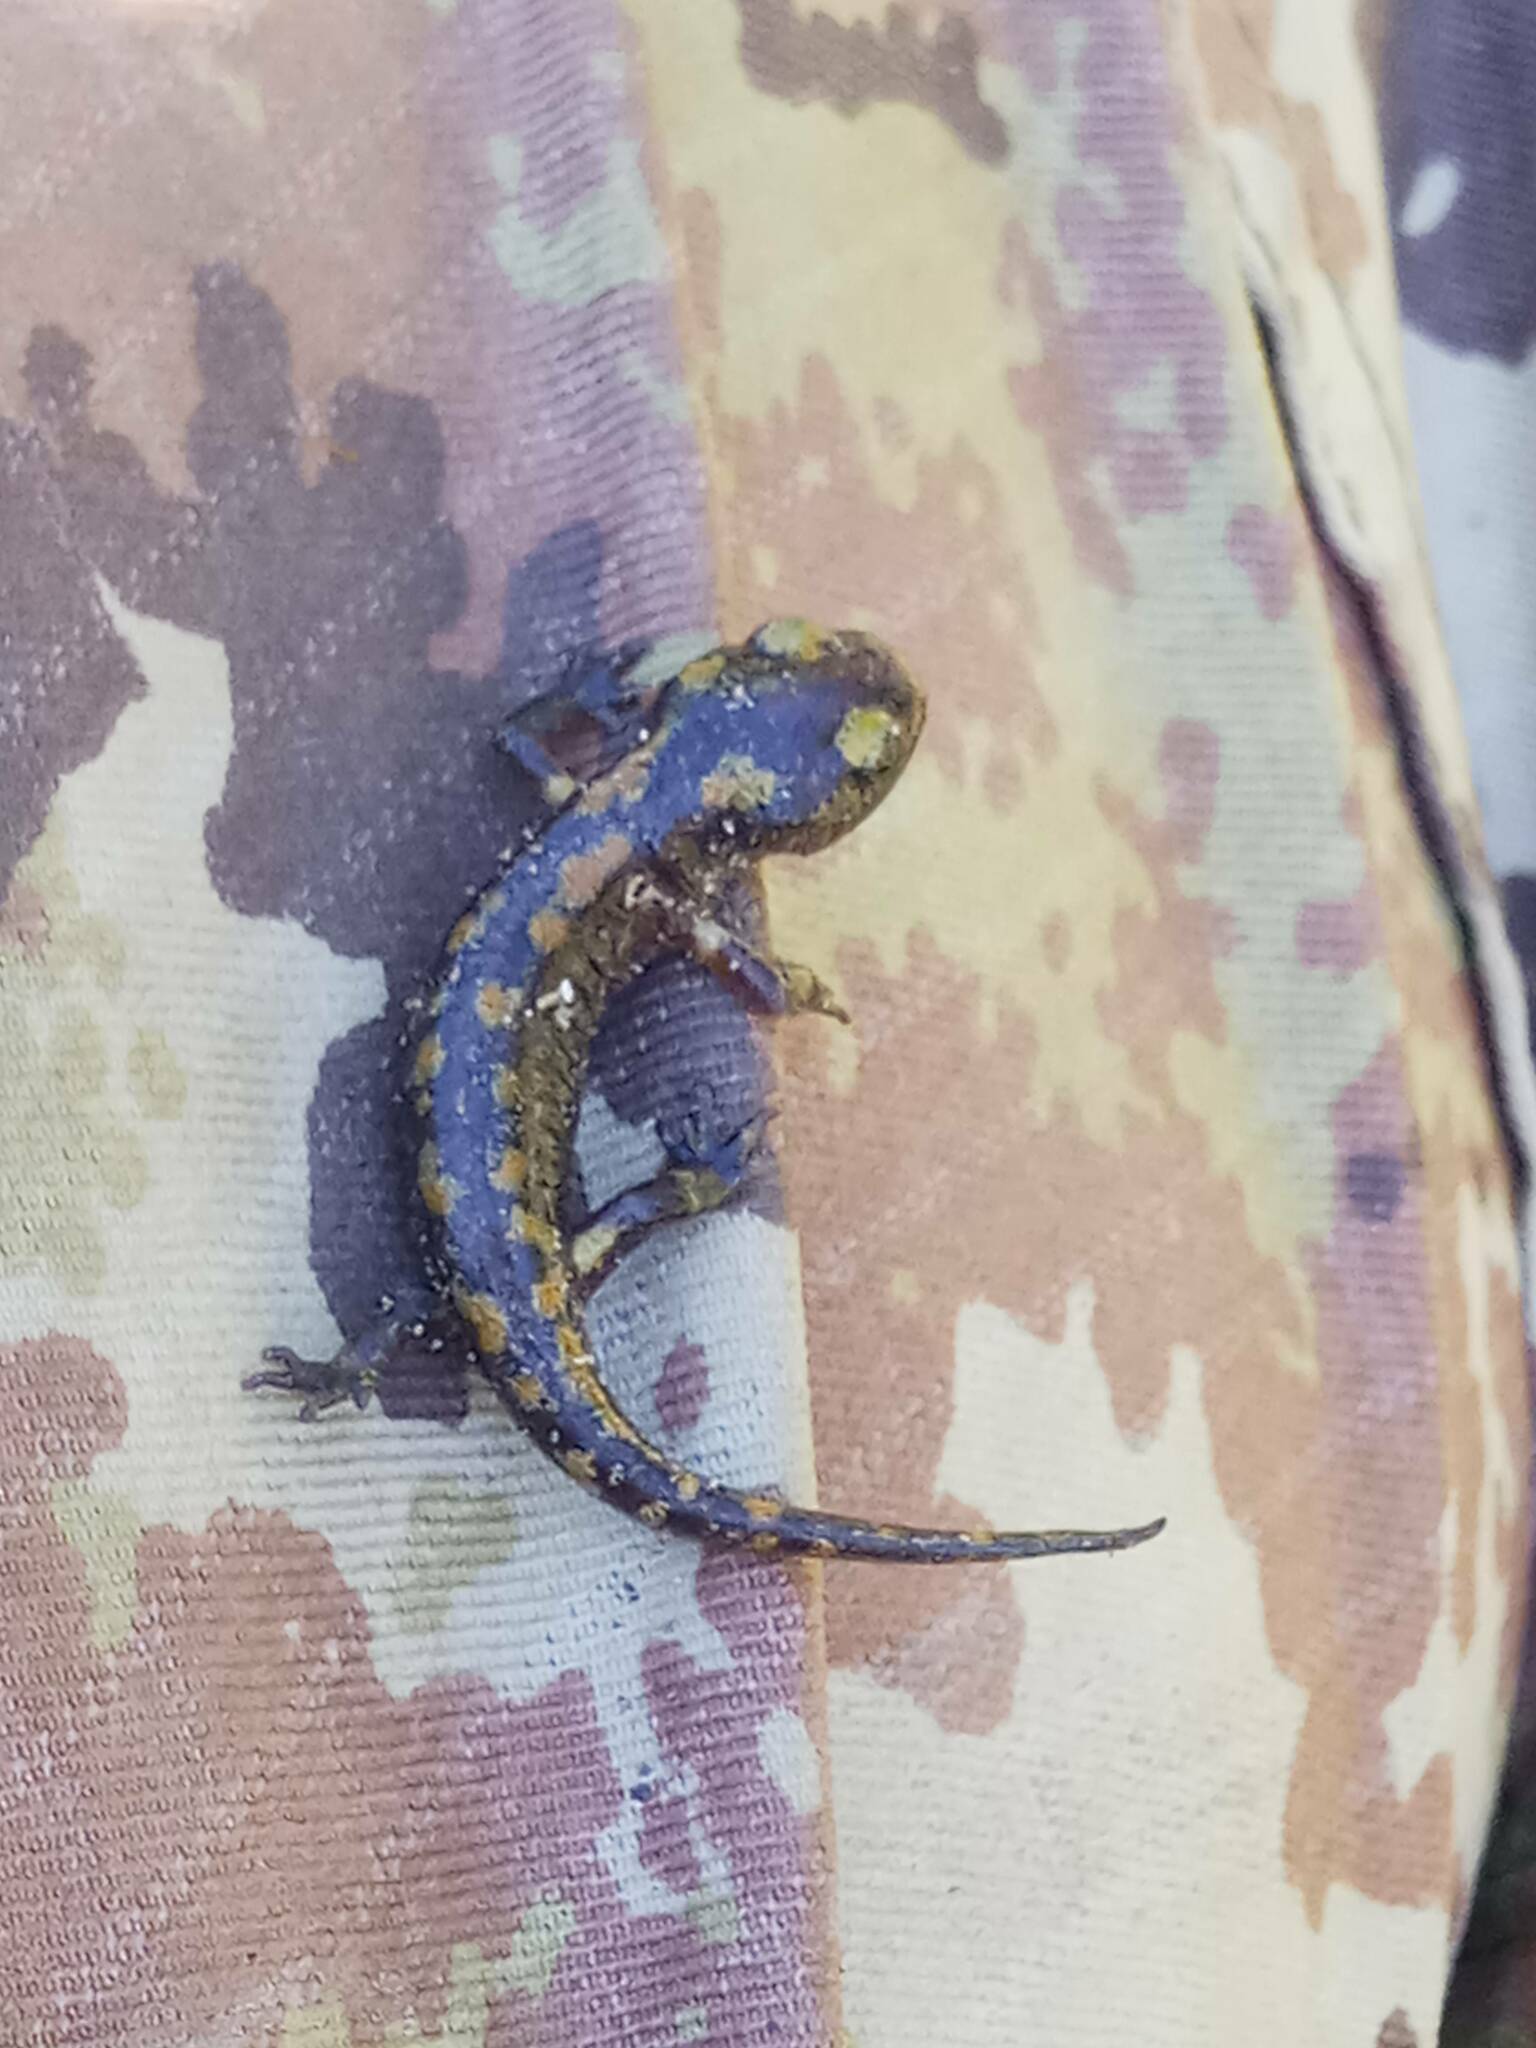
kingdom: Animalia
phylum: Chordata
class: Amphibia
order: Caudata
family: Salamandridae
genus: Salamandra
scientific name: Salamandra algira
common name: North african fire salamander
